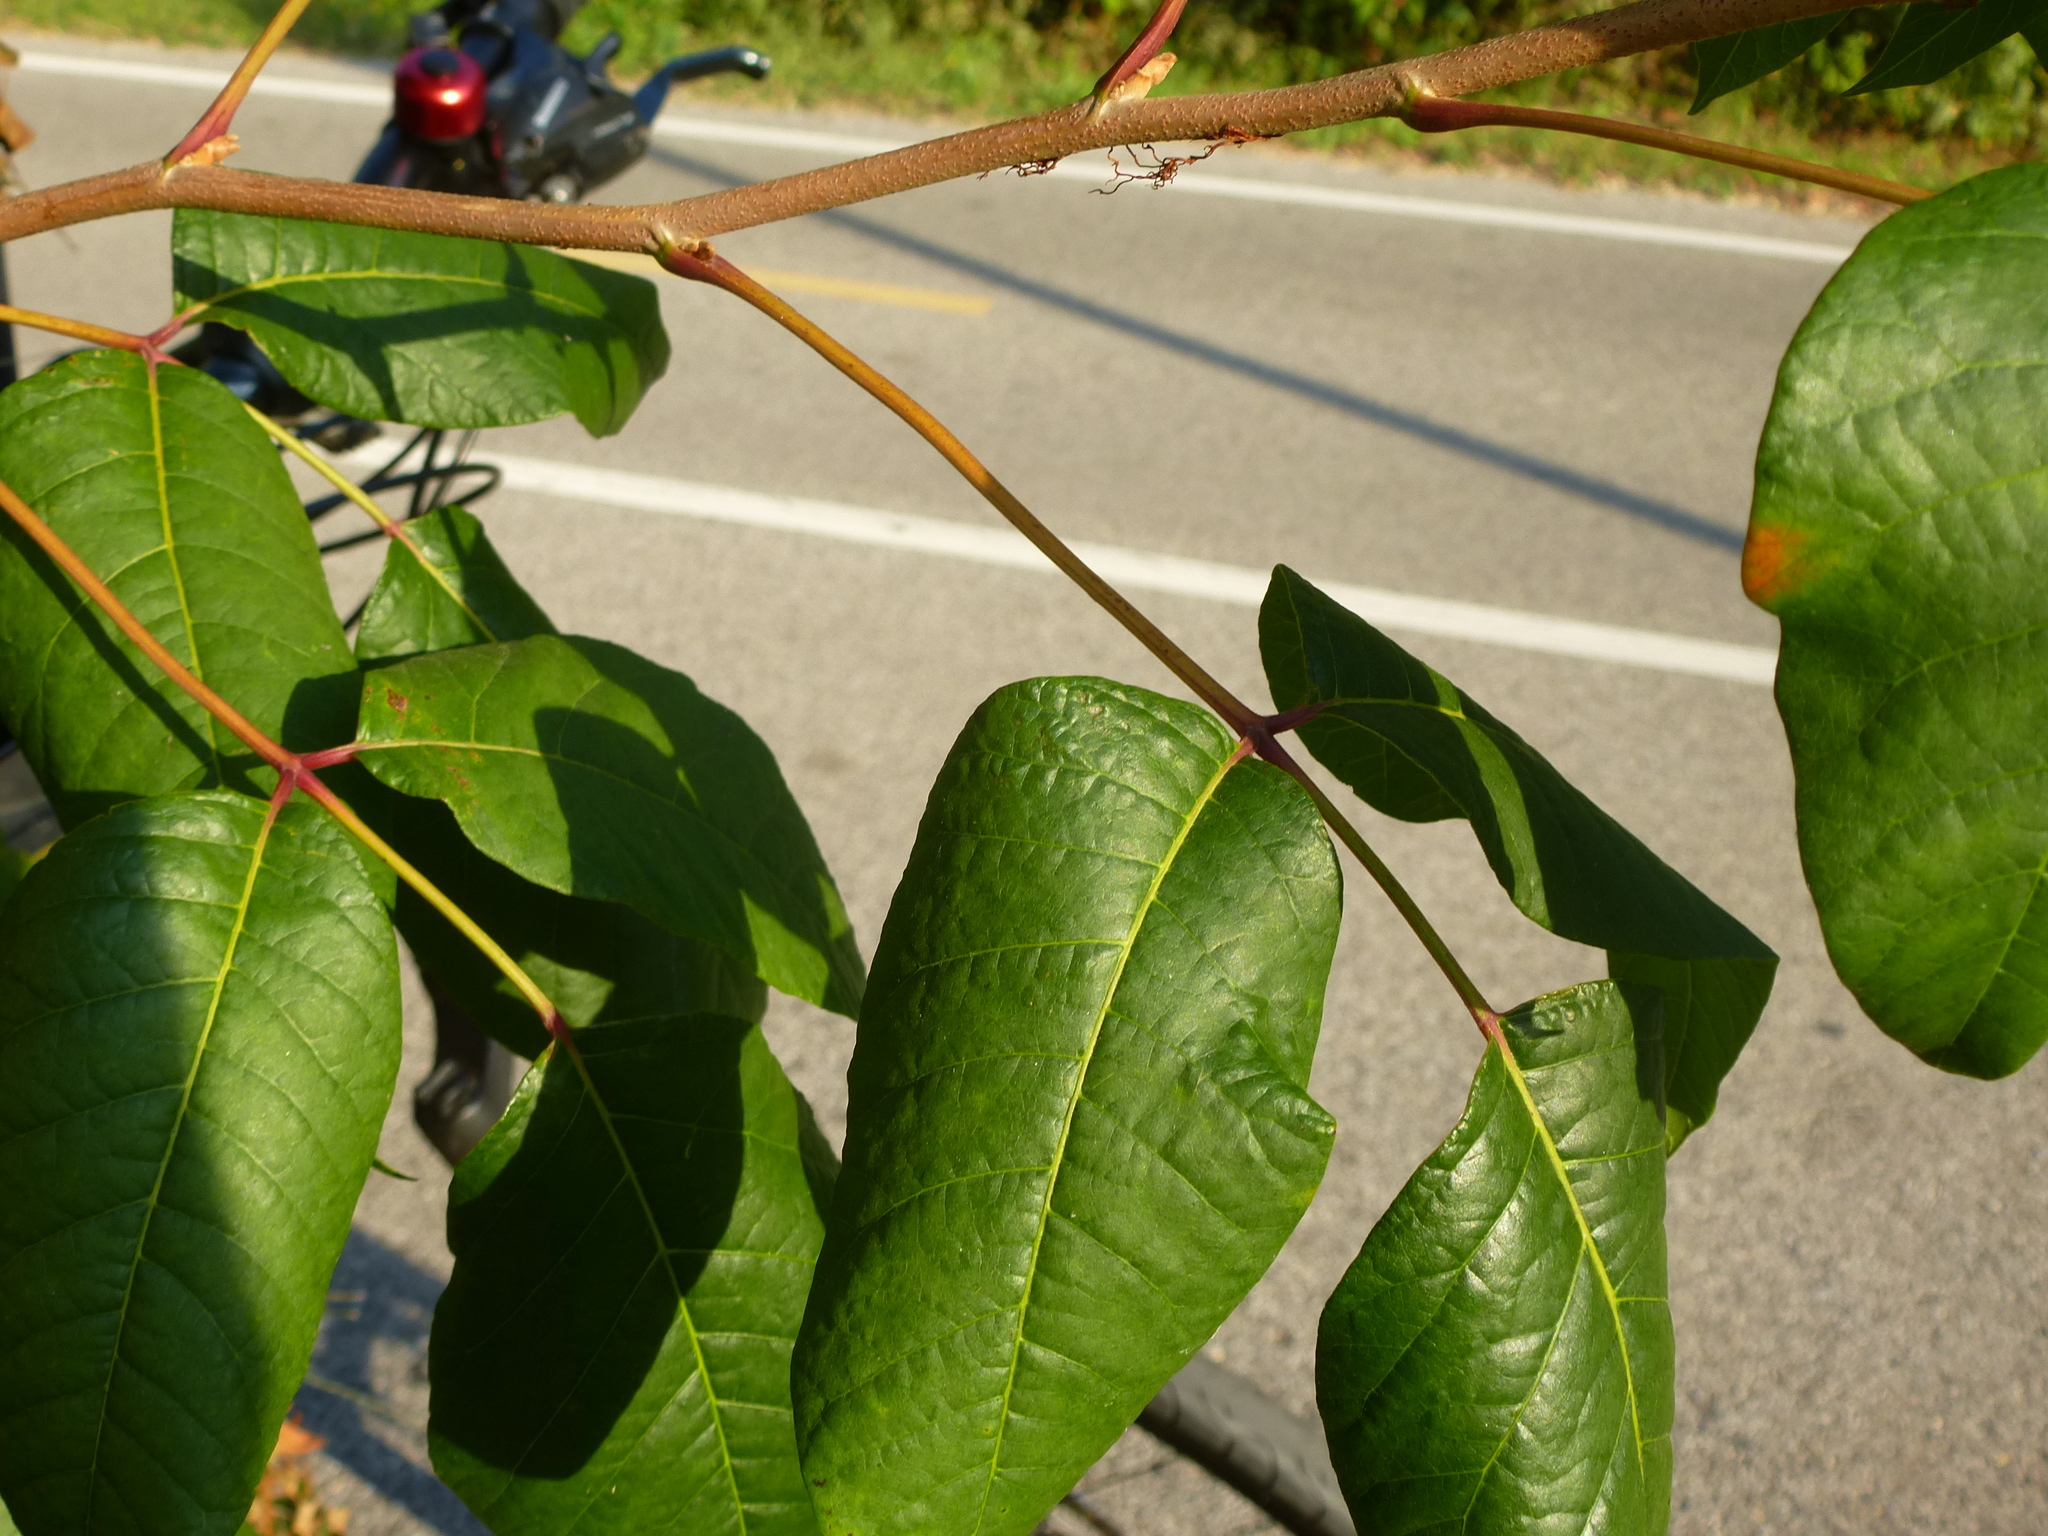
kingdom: Plantae
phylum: Tracheophyta
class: Magnoliopsida
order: Sapindales
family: Anacardiaceae
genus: Toxicodendron
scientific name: Toxicodendron radicans
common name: Poison ivy
